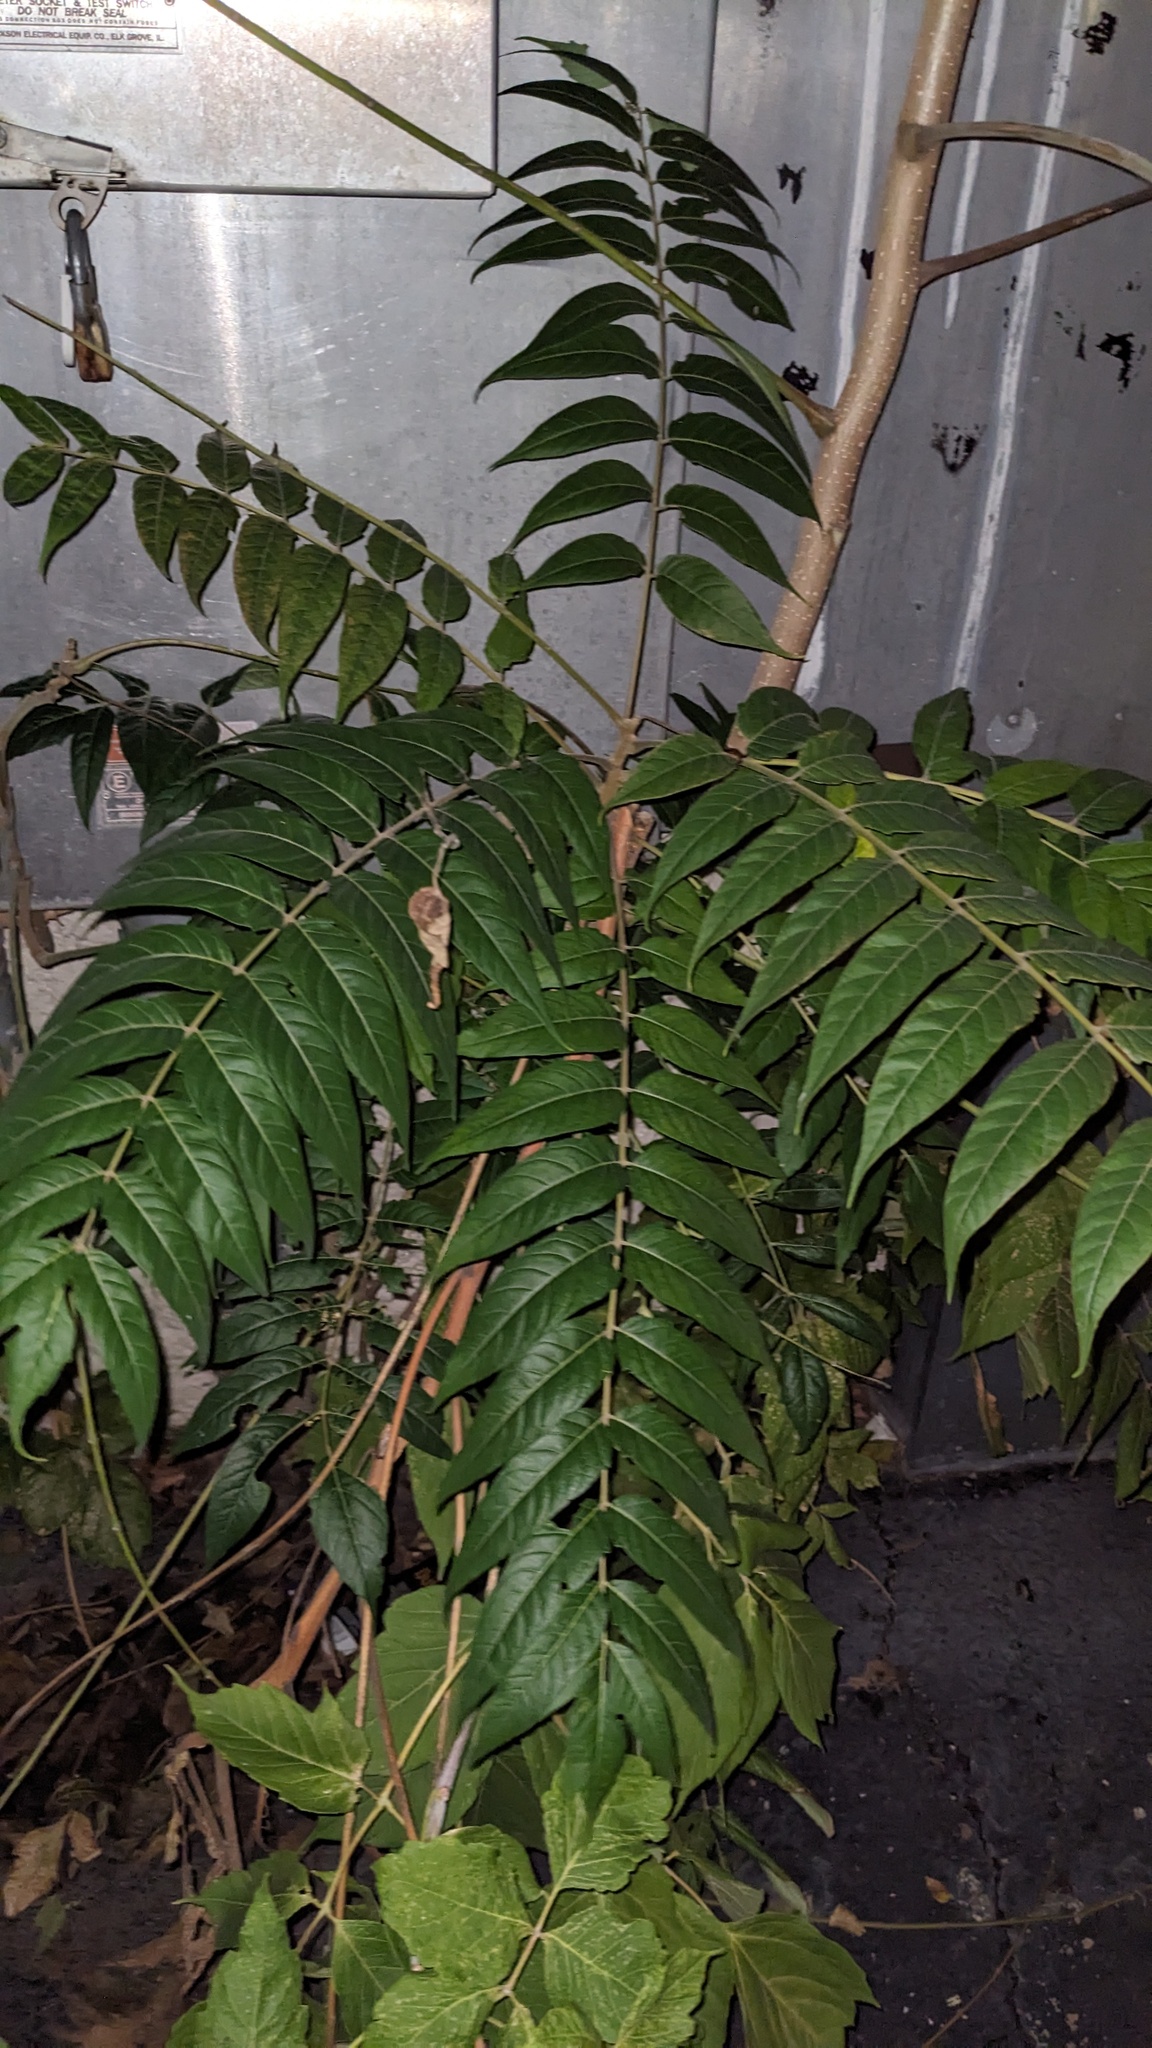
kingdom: Plantae
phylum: Tracheophyta
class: Magnoliopsida
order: Sapindales
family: Simaroubaceae
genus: Ailanthus
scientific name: Ailanthus altissima
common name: Tree-of-heaven
